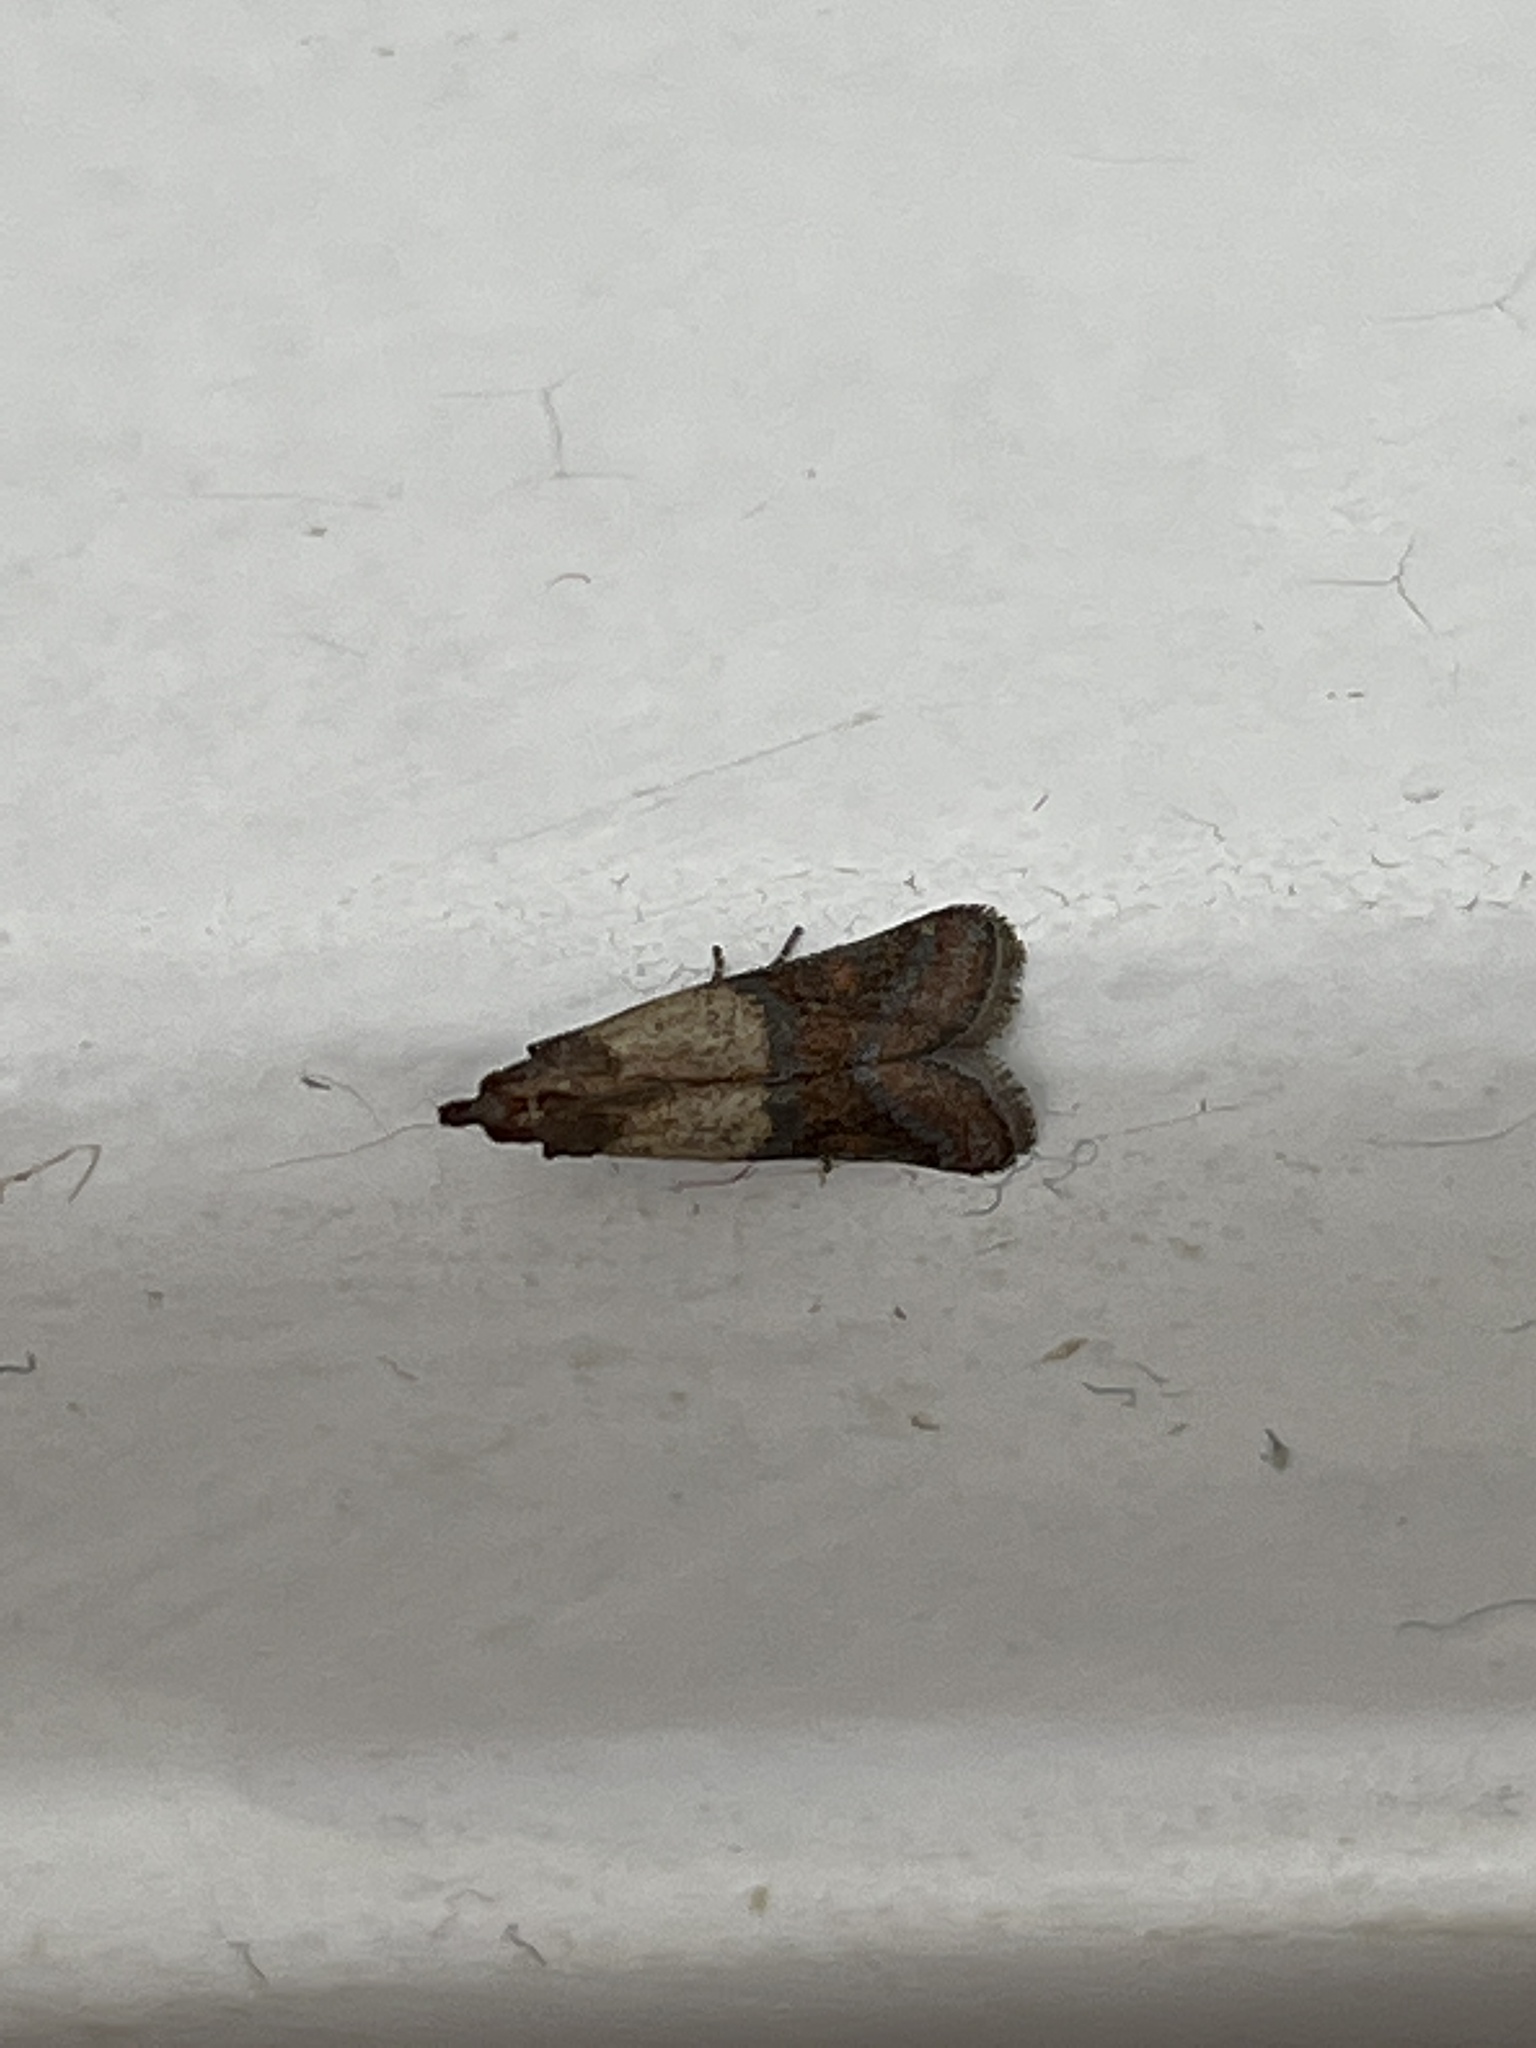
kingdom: Animalia
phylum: Arthropoda
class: Insecta
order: Lepidoptera
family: Pyralidae
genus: Plodia
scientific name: Plodia interpunctella
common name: Indian meal moth
